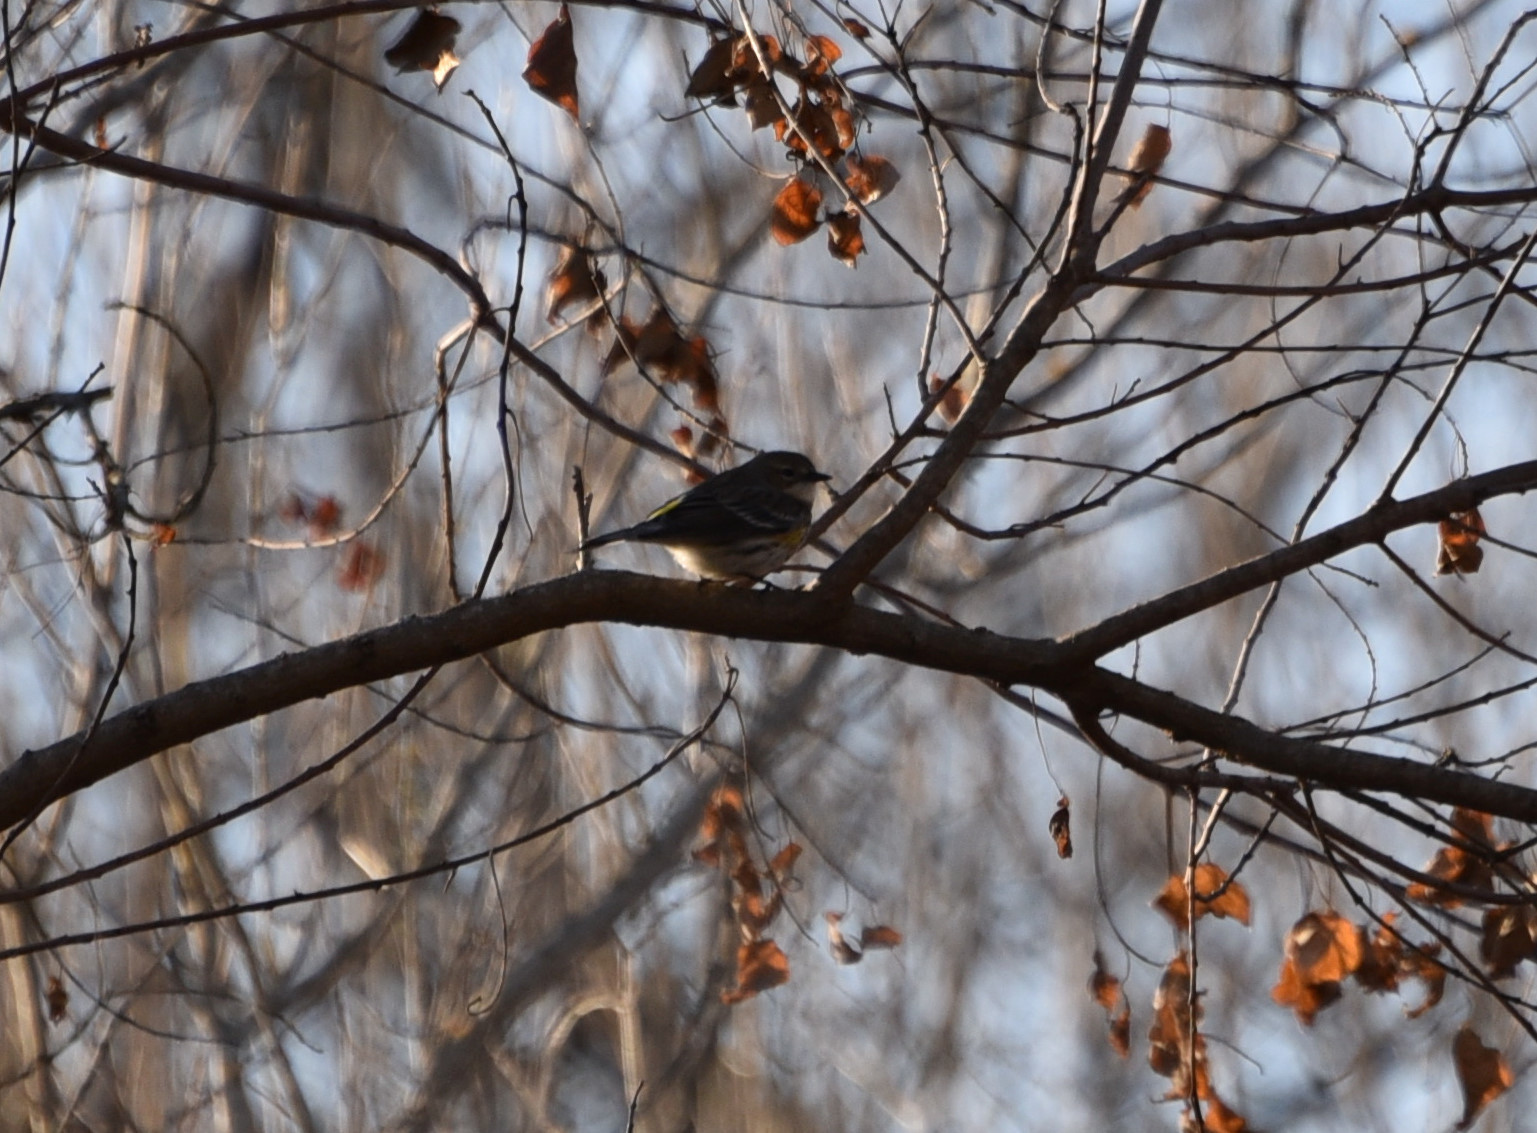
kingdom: Animalia
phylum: Chordata
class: Aves
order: Passeriformes
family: Parulidae
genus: Setophaga
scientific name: Setophaga coronata
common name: Myrtle warbler
